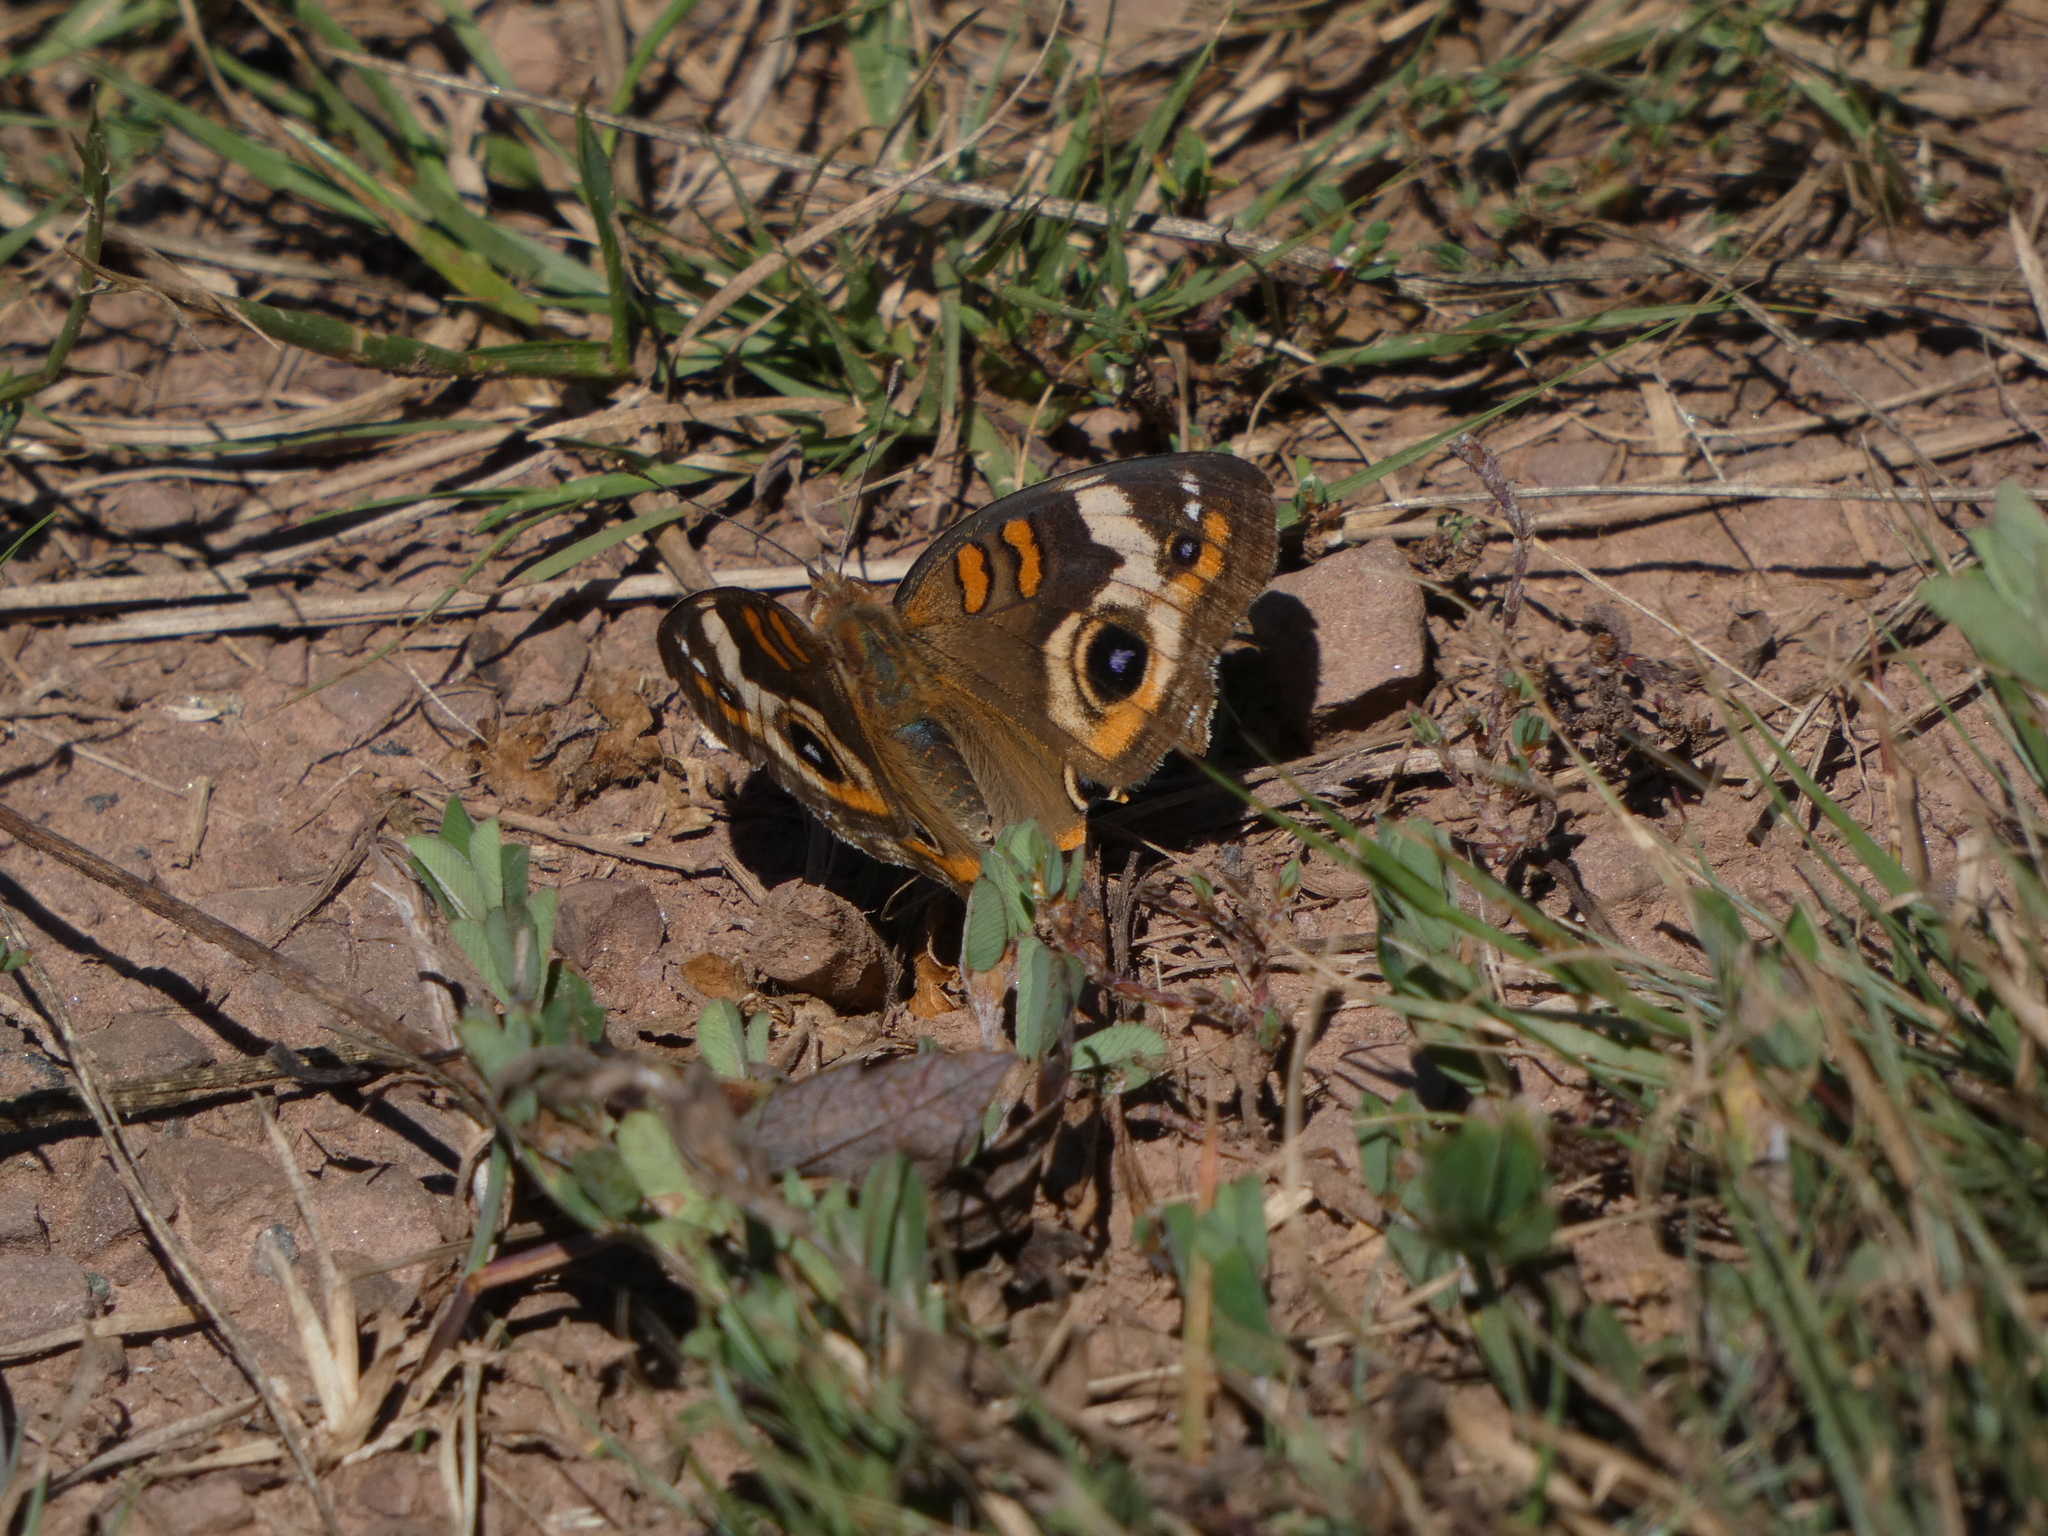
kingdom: Animalia
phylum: Arthropoda
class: Insecta
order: Lepidoptera
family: Nymphalidae
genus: Junonia
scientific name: Junonia coenia
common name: Common buckeye
